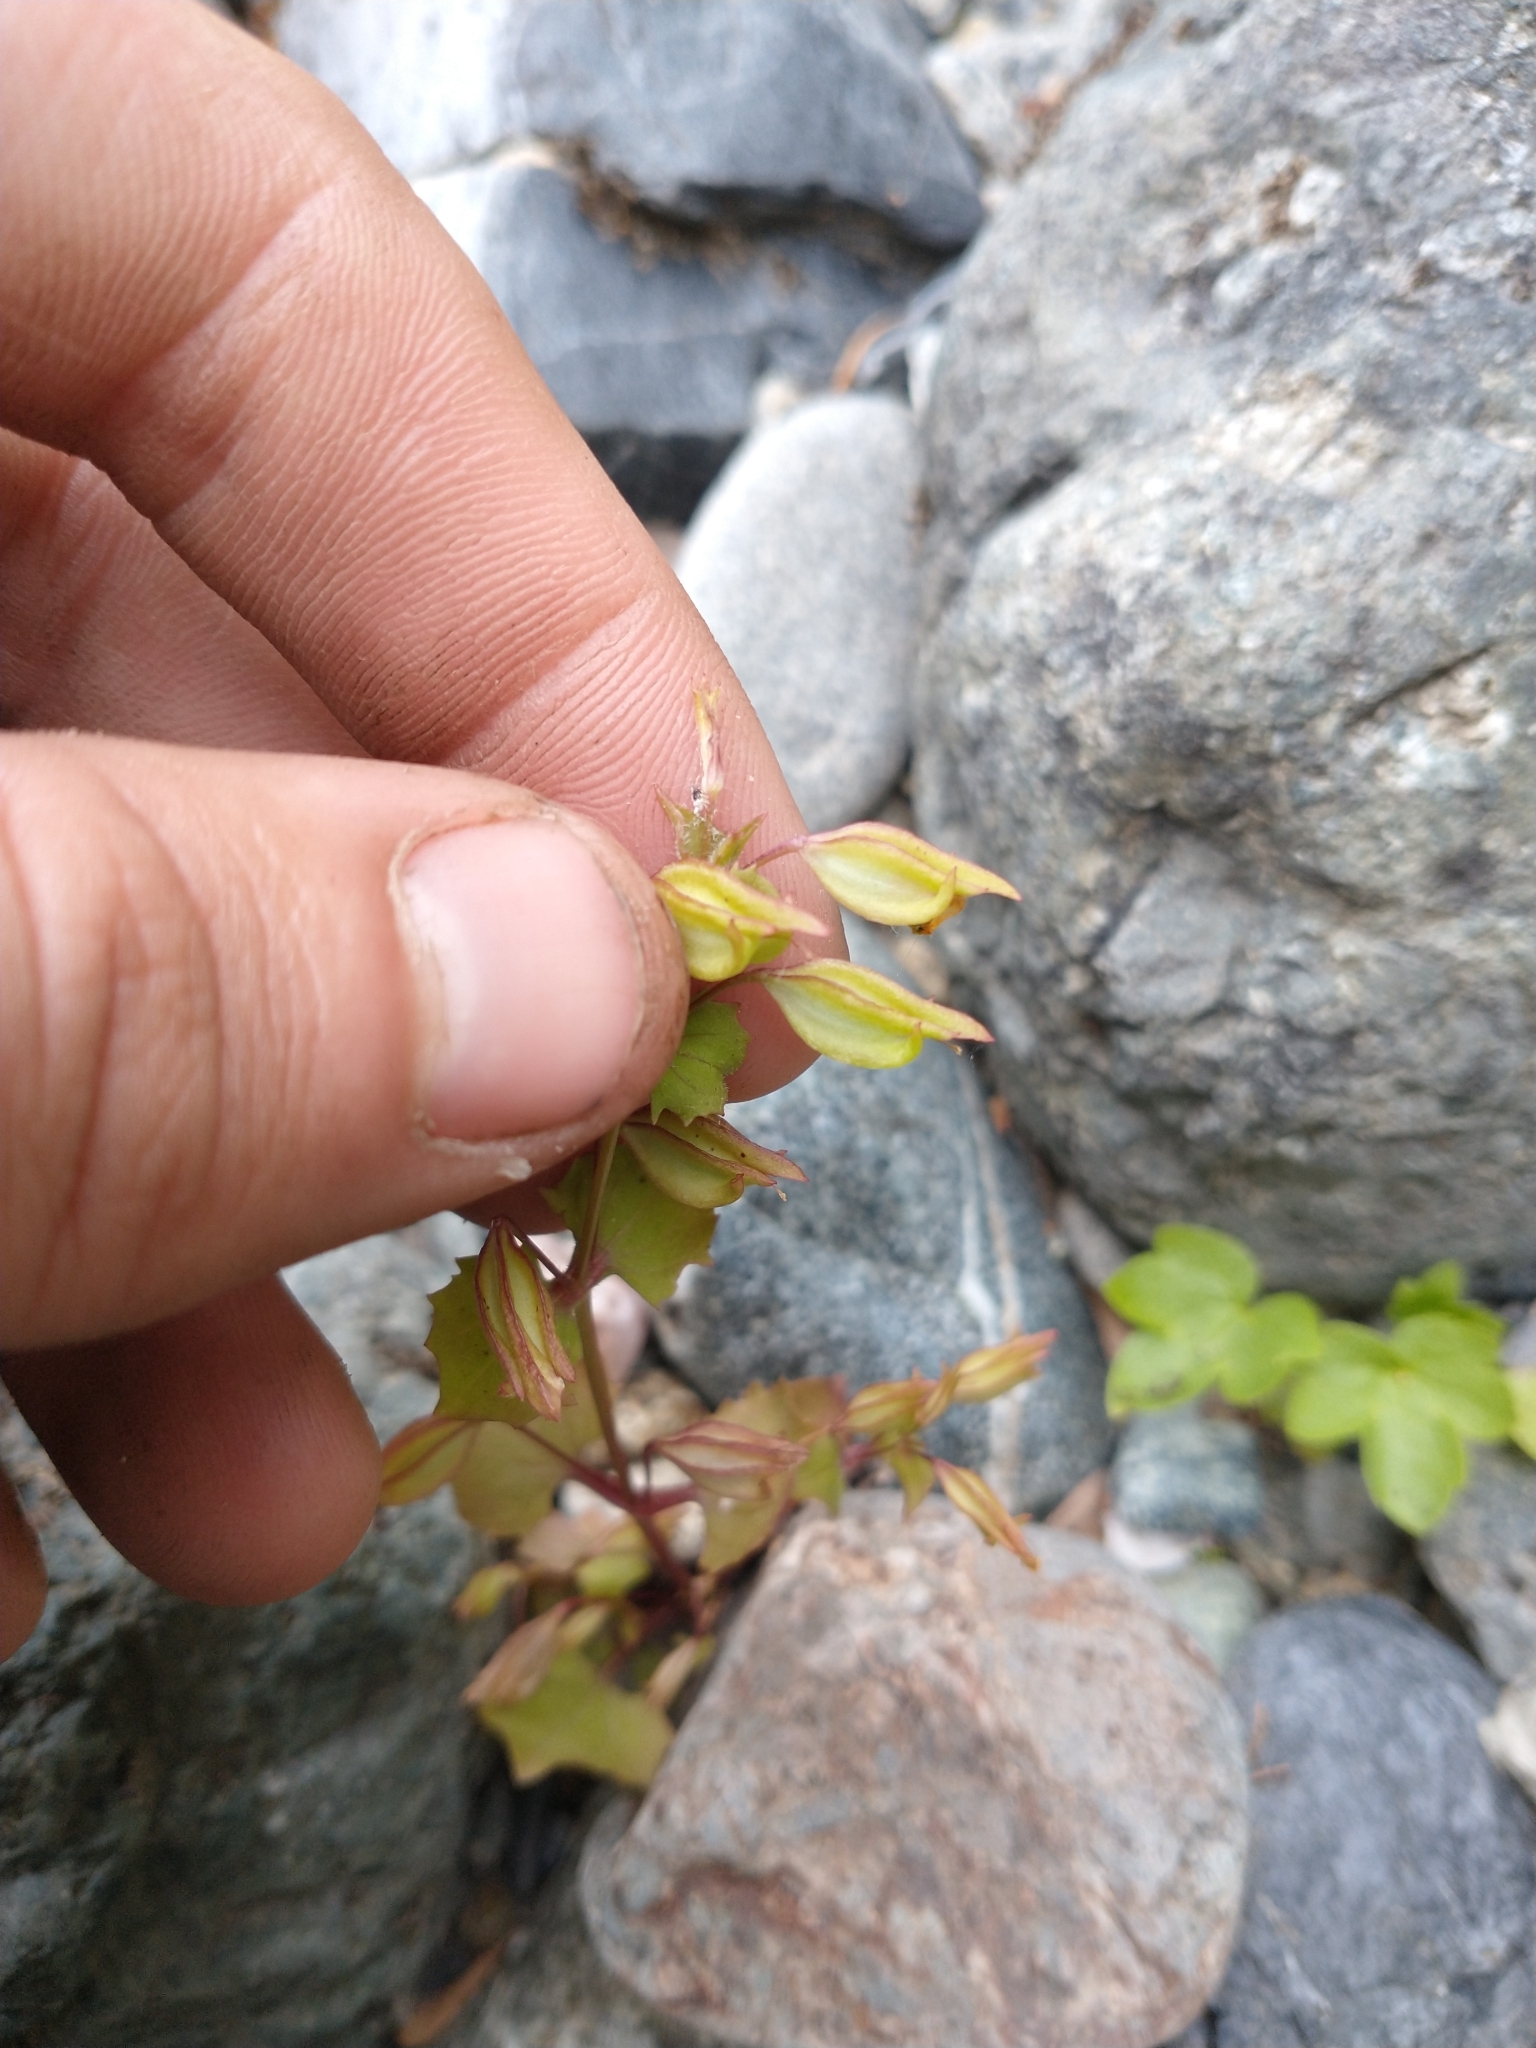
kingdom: Plantae
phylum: Tracheophyta
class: Magnoliopsida
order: Lamiales
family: Phrymaceae
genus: Erythranthe
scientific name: Erythranthe nasuta
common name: Sooke monkeyflower
